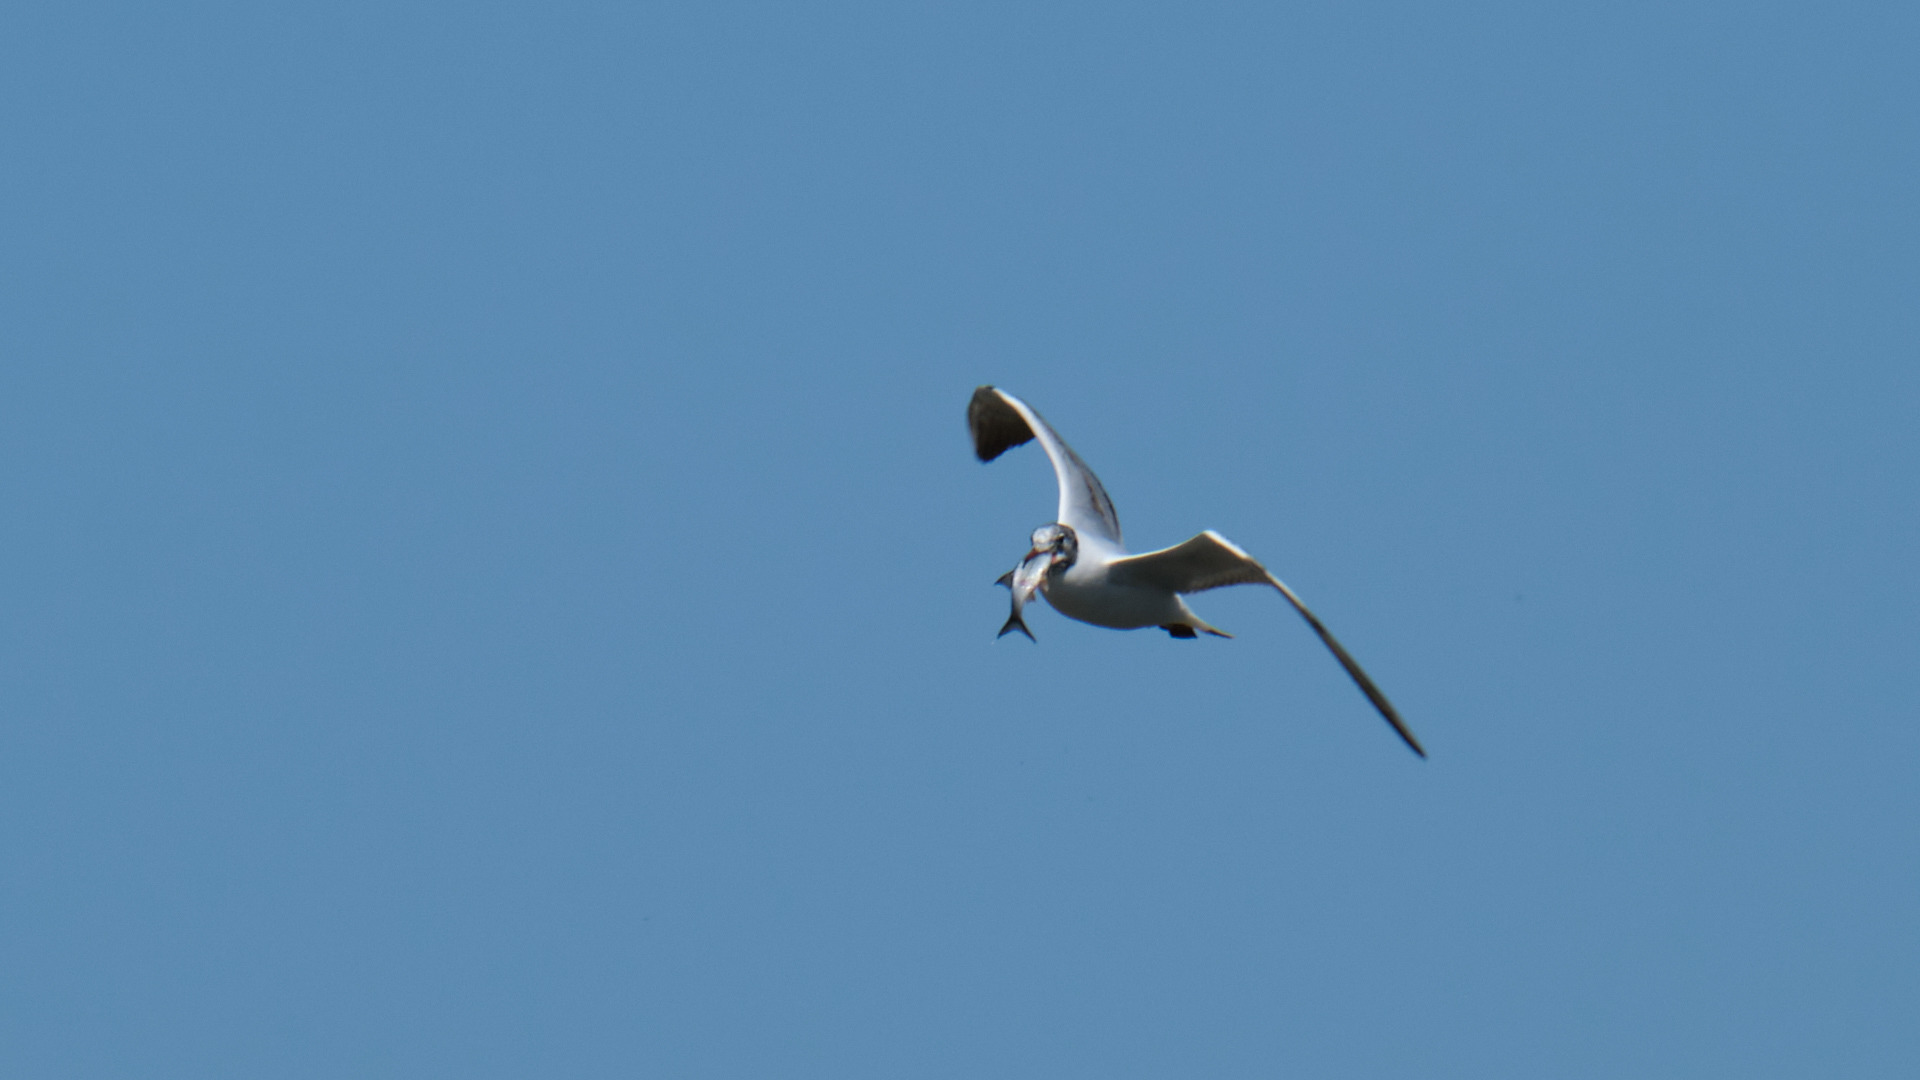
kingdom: Animalia
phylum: Chordata
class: Aves
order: Charadriiformes
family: Laridae
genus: Chroicocephalus
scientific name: Chroicocephalus ridibundus
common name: Black-headed gull
